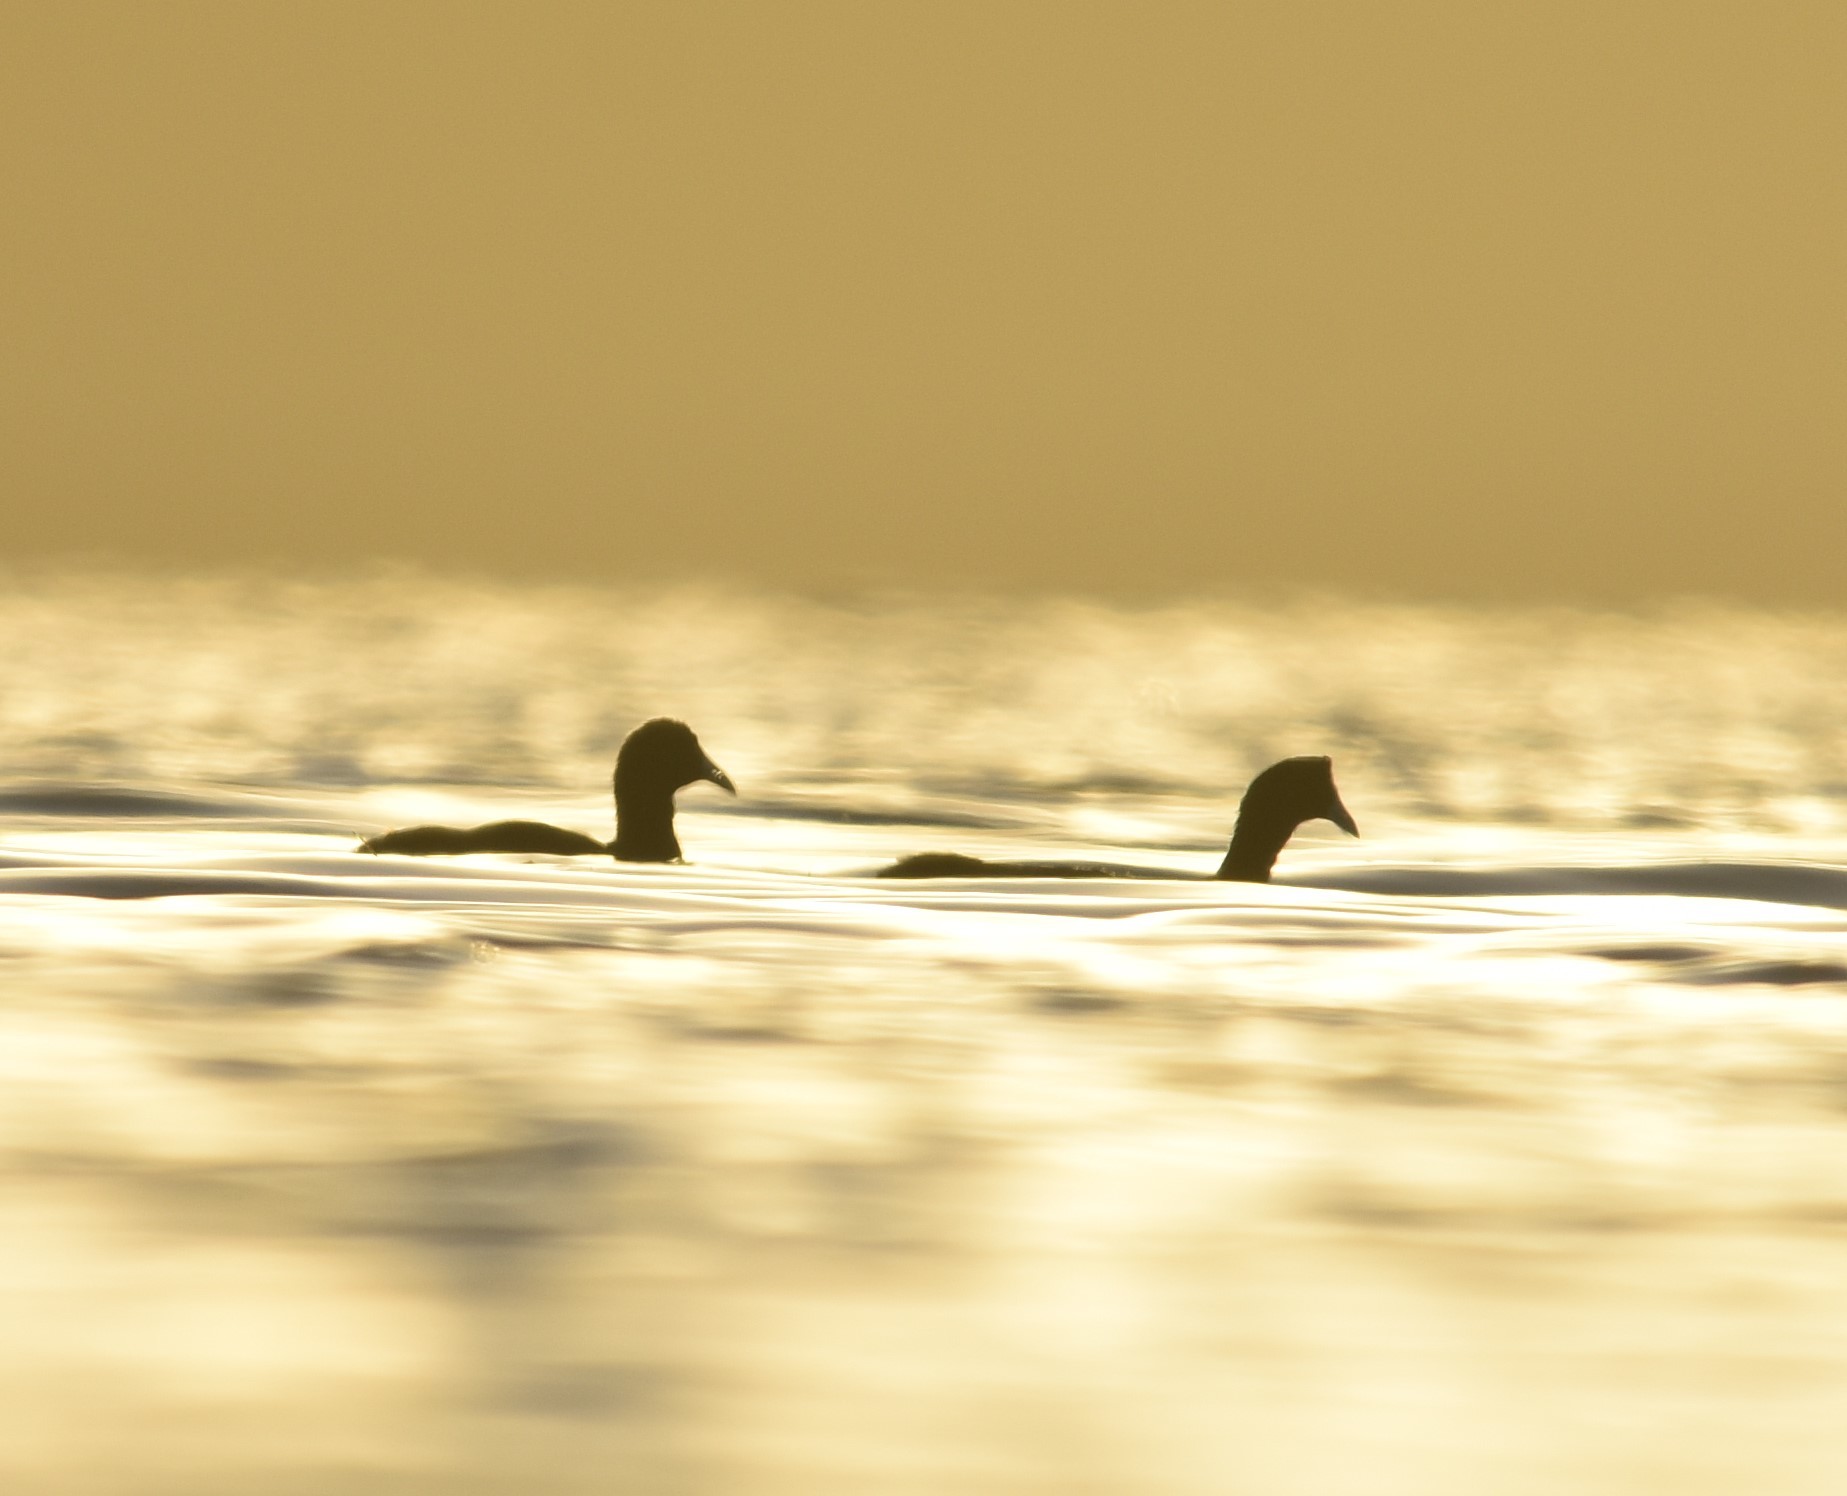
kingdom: Animalia
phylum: Chordata
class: Aves
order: Gruiformes
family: Rallidae
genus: Fulica
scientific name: Fulica cristata
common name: Red-knobbed coot
